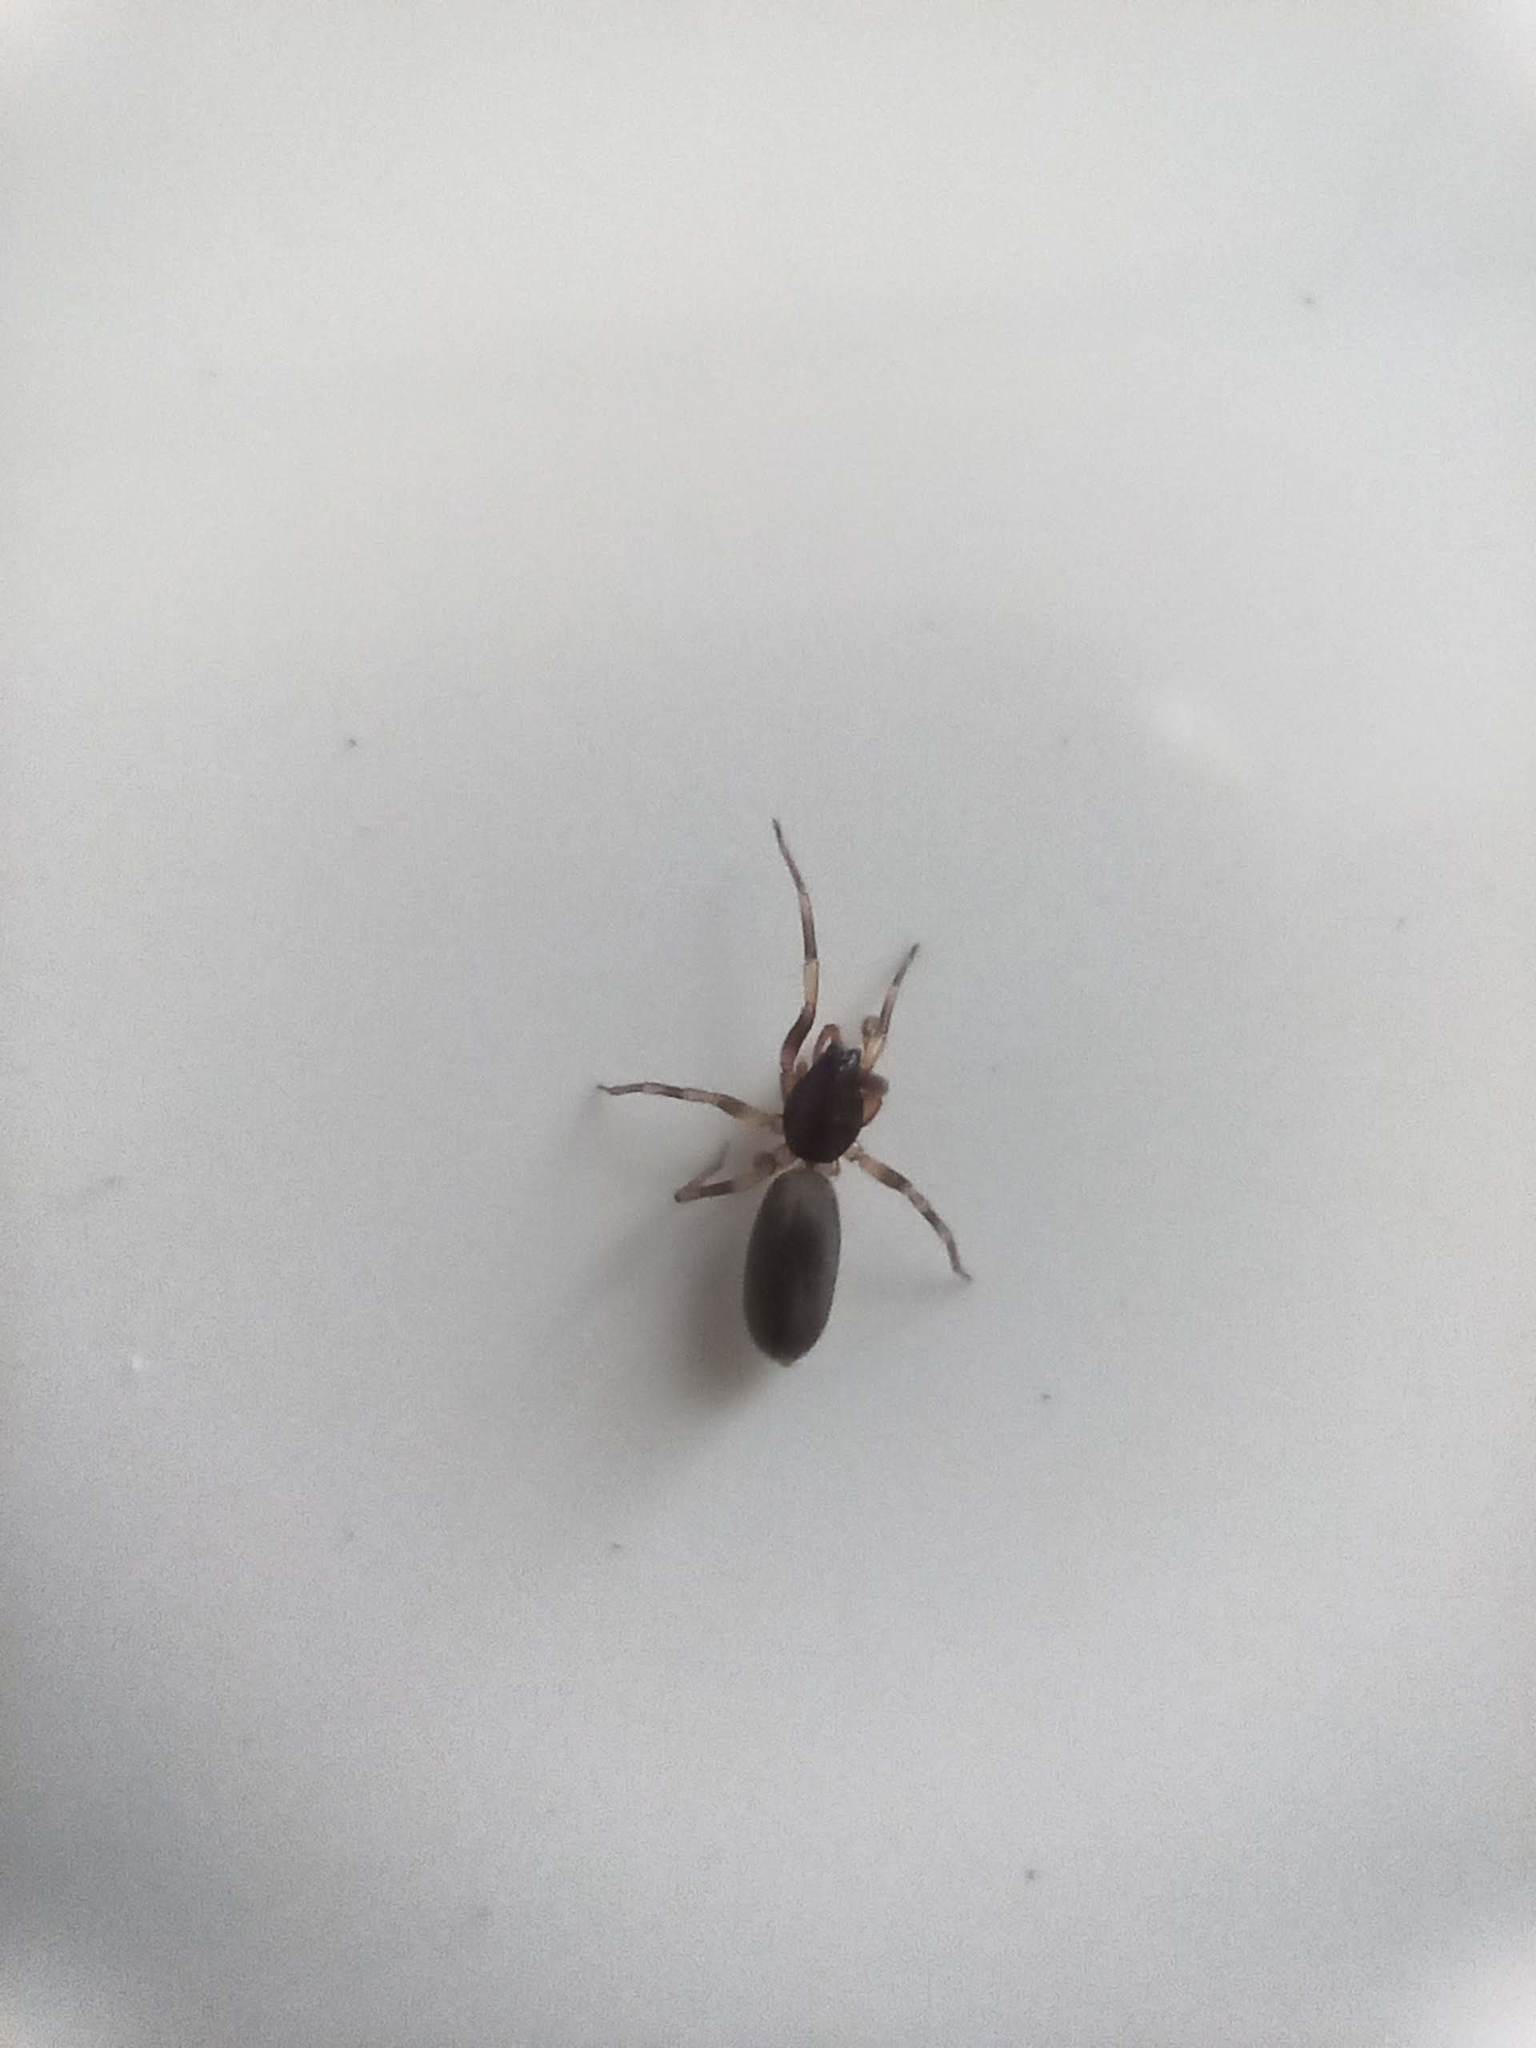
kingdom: Animalia
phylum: Arthropoda
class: Arachnida
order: Araneae
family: Dysderidae
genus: Harpactea
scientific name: Harpactea hombergi
